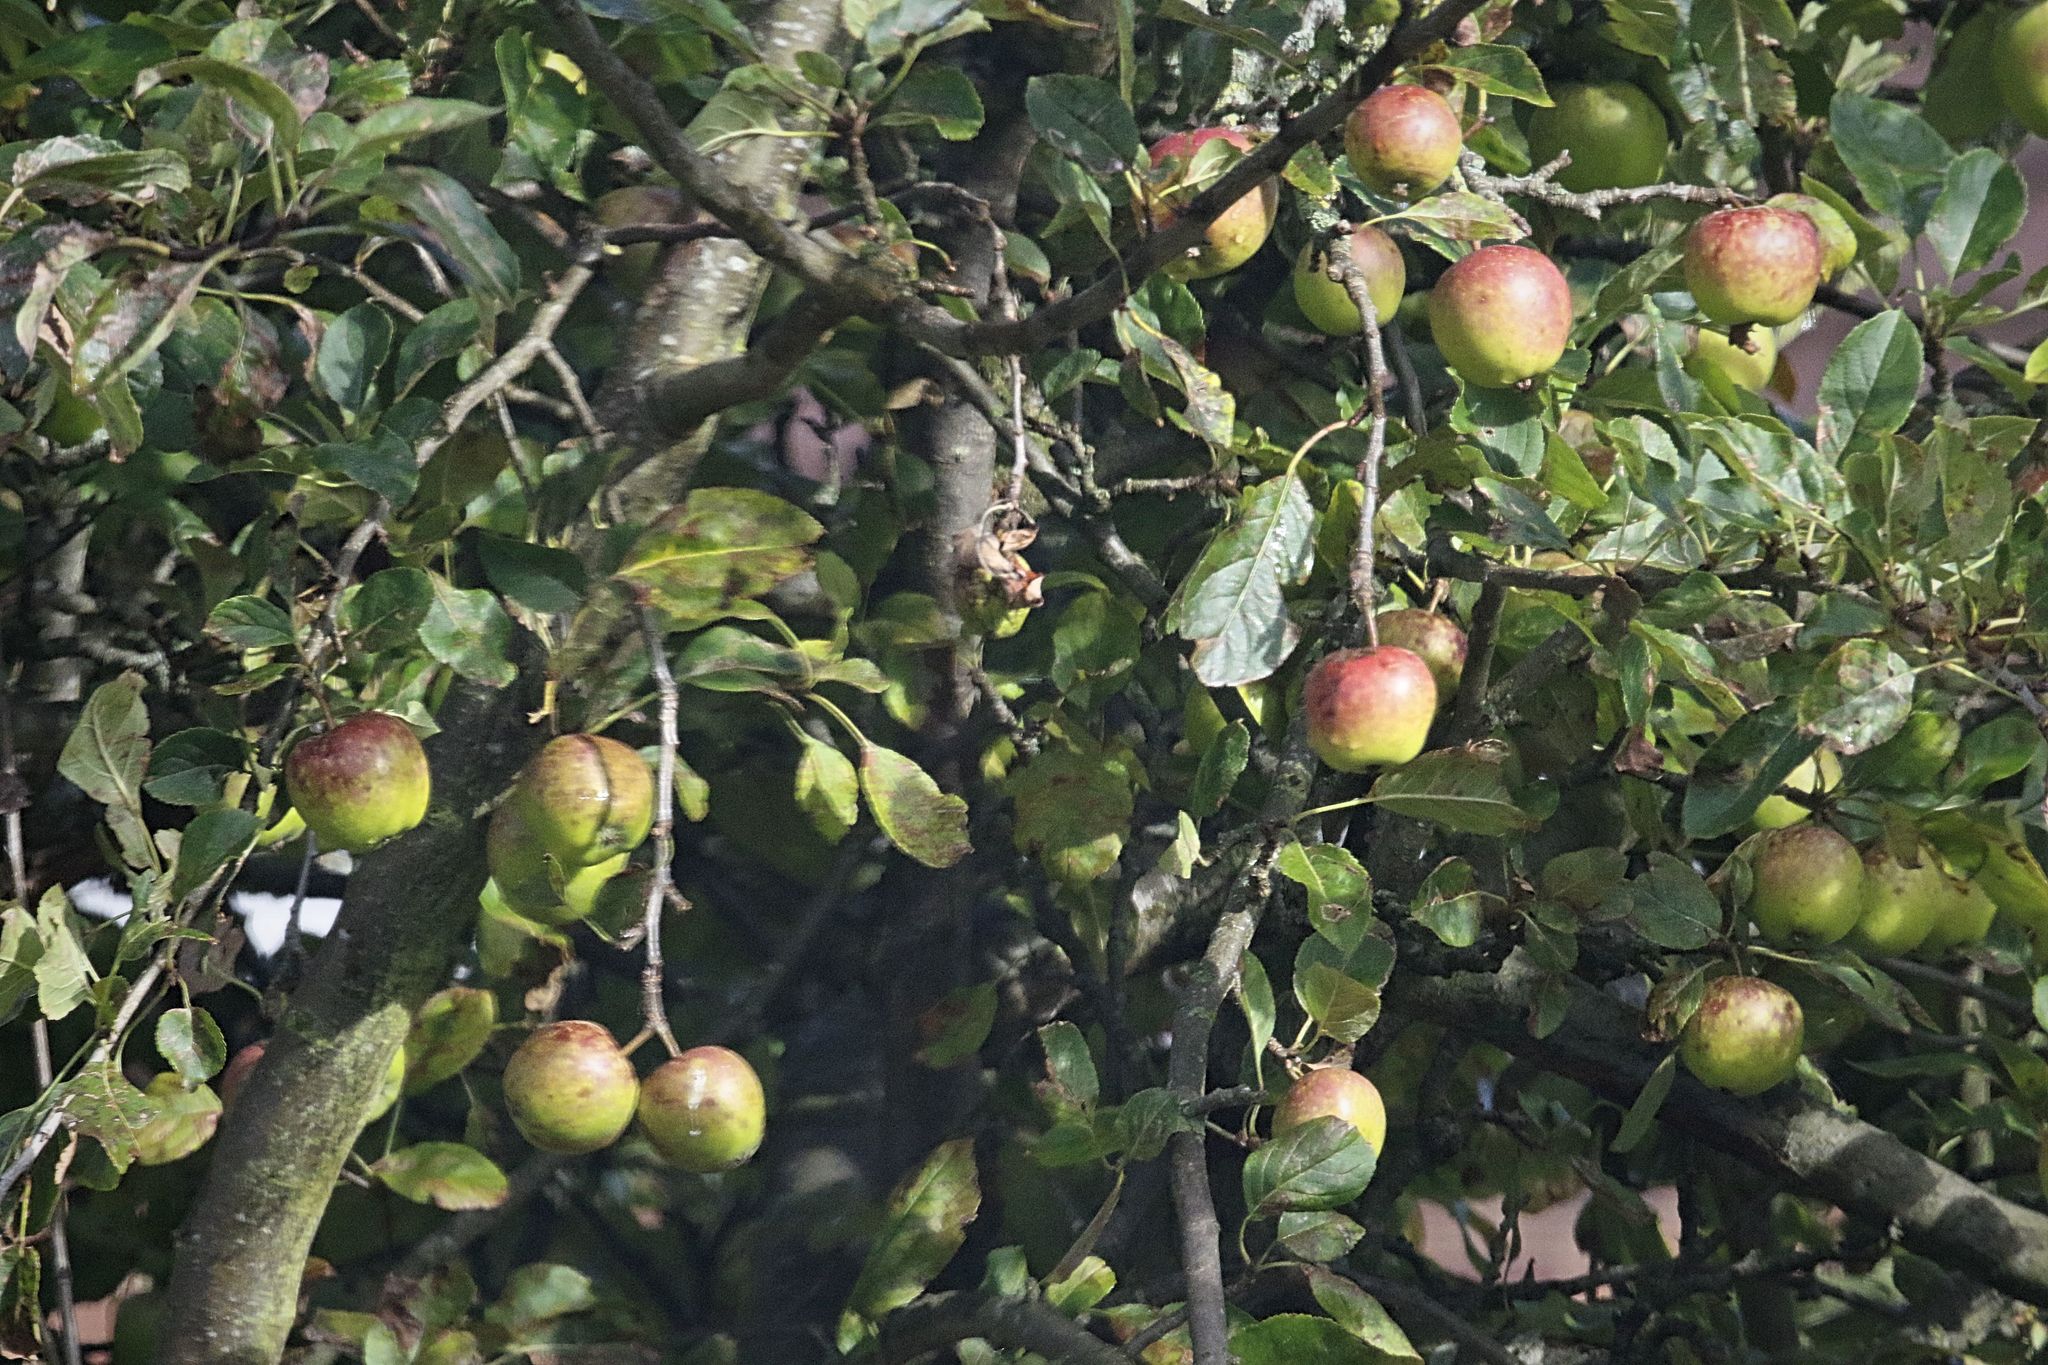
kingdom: Plantae
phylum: Tracheophyta
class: Magnoliopsida
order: Rosales
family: Rosaceae
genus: Malus
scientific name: Malus domestica
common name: Apple
